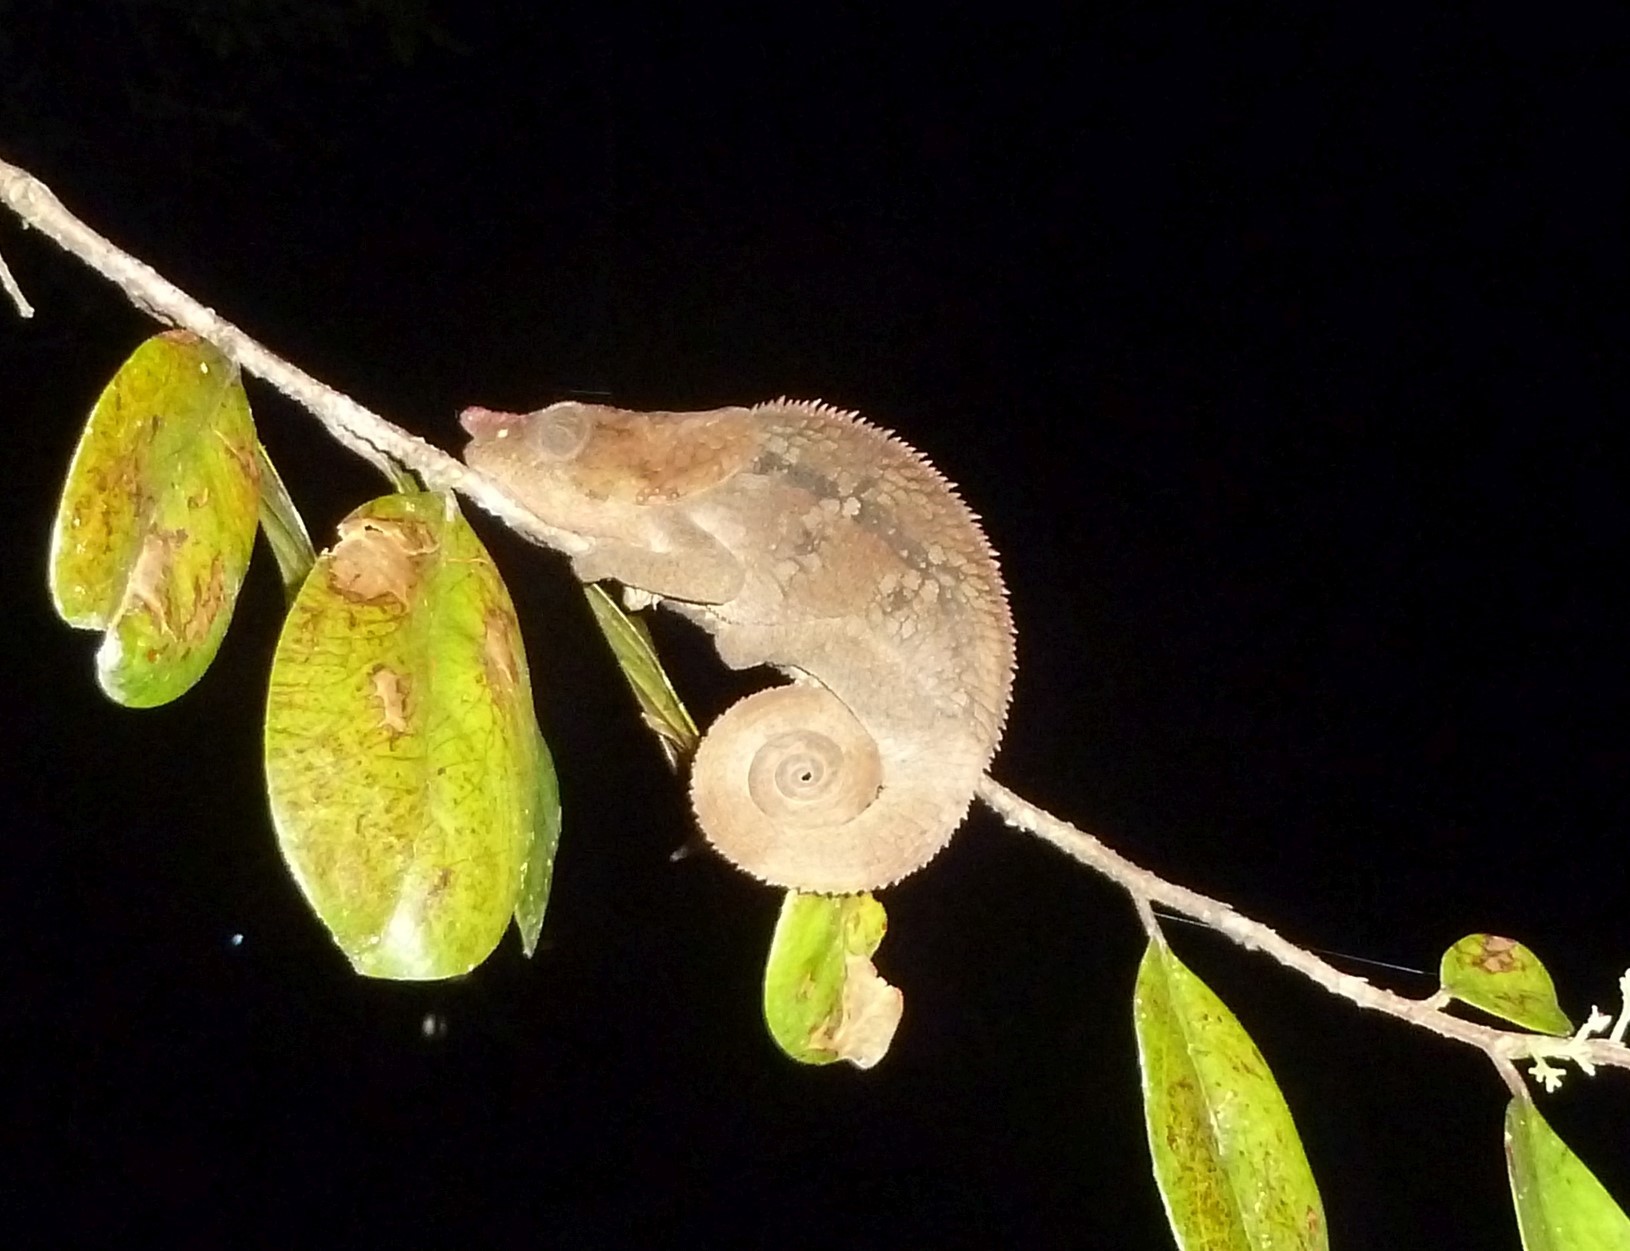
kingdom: Animalia
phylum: Chordata
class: Squamata
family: Chamaeleonidae
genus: Calumma
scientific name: Calumma brevicorne
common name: Short-horned chameleon
